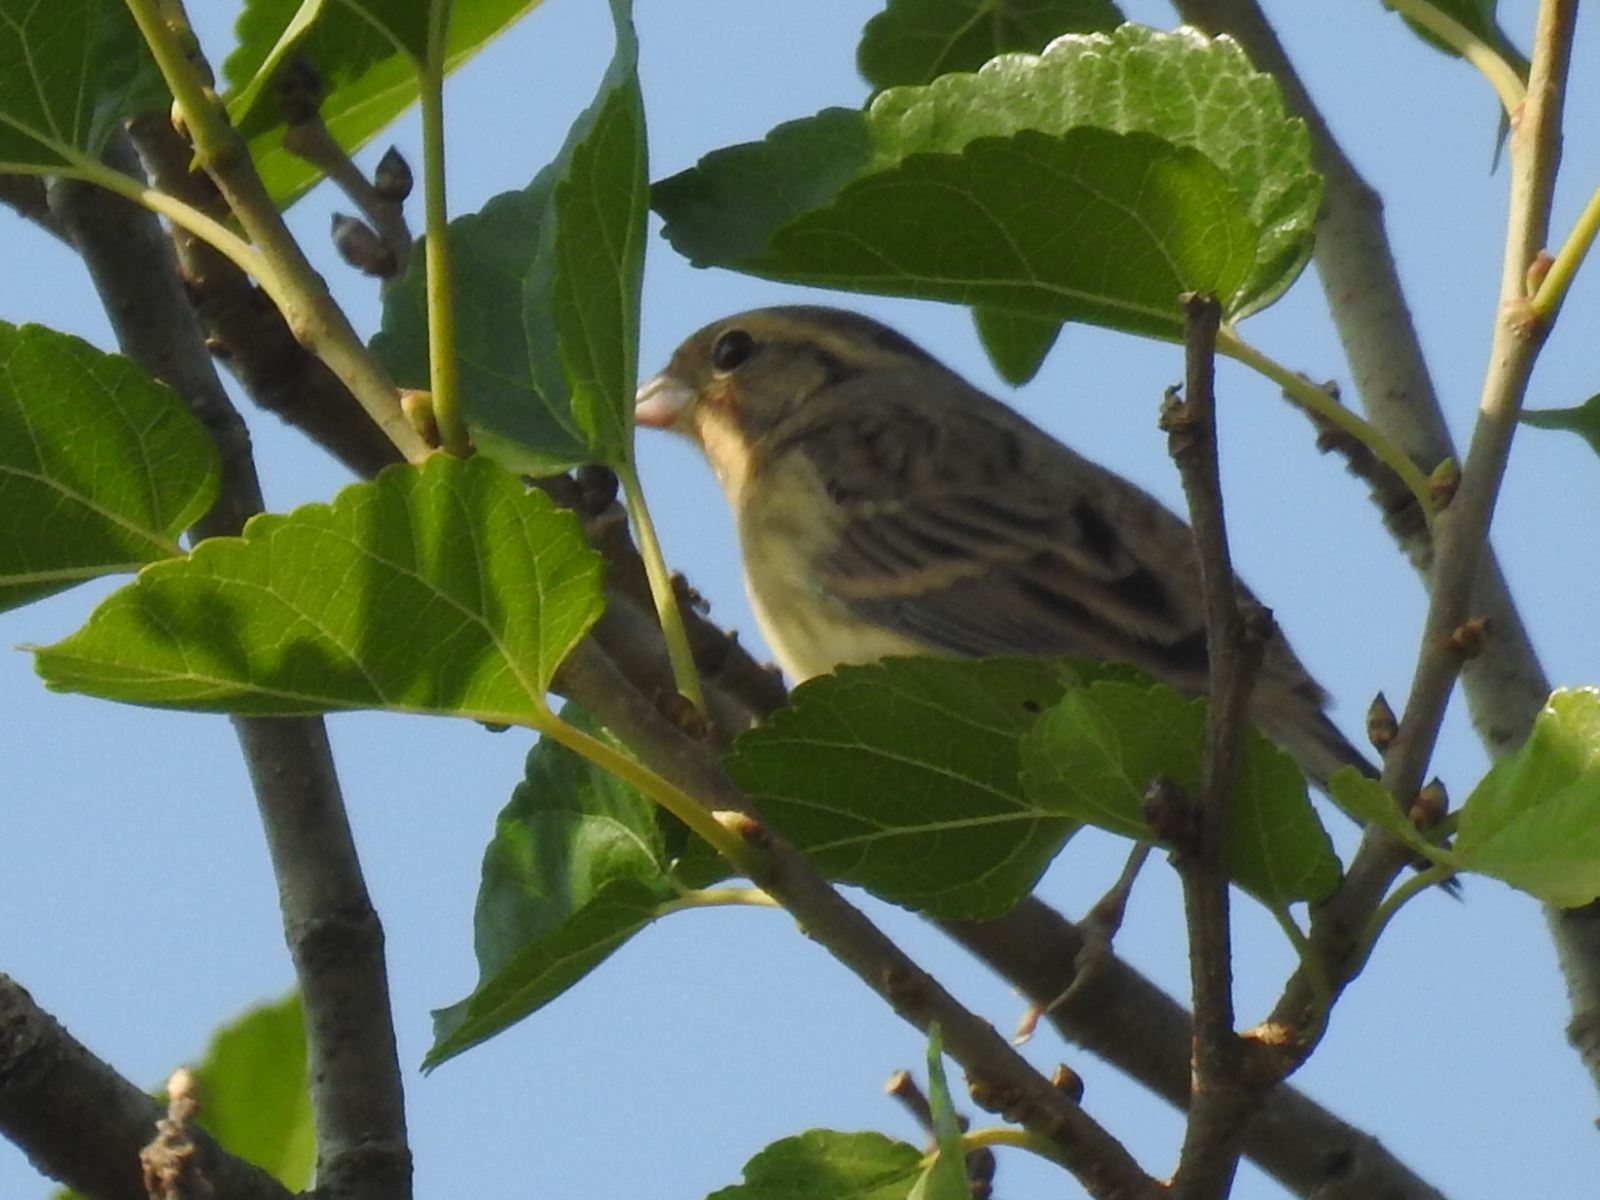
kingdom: Animalia
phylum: Chordata
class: Aves
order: Passeriformes
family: Emberizidae
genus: Emberiza
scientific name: Emberiza aureola
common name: Yellow-breasted bunting
